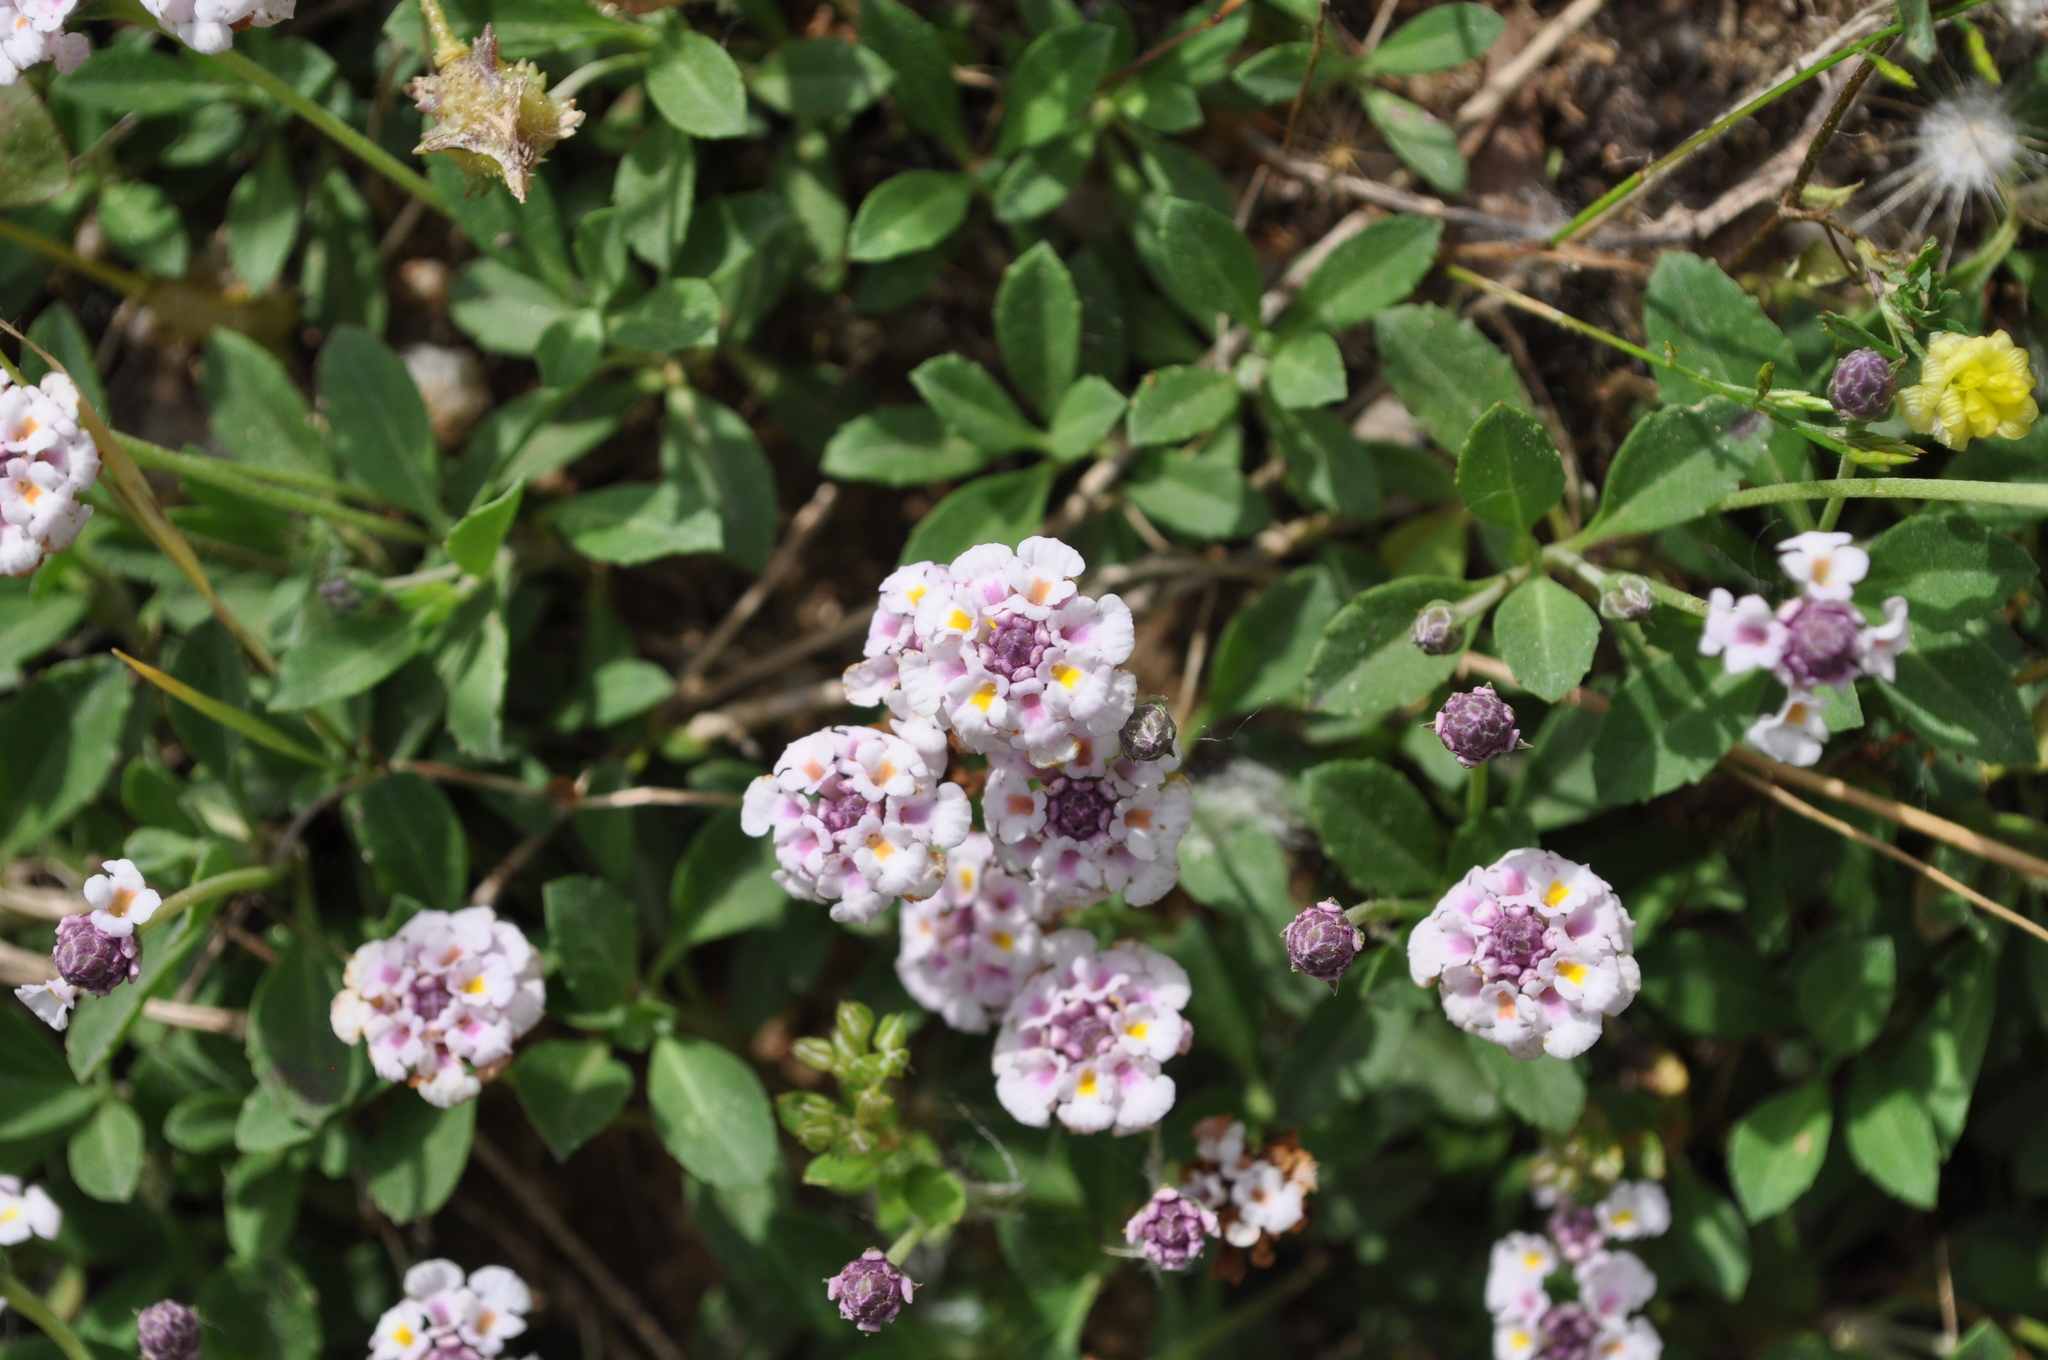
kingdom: Plantae
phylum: Tracheophyta
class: Magnoliopsida
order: Lamiales
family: Verbenaceae
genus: Phyla
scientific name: Phyla nodiflora
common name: Frogfruit
